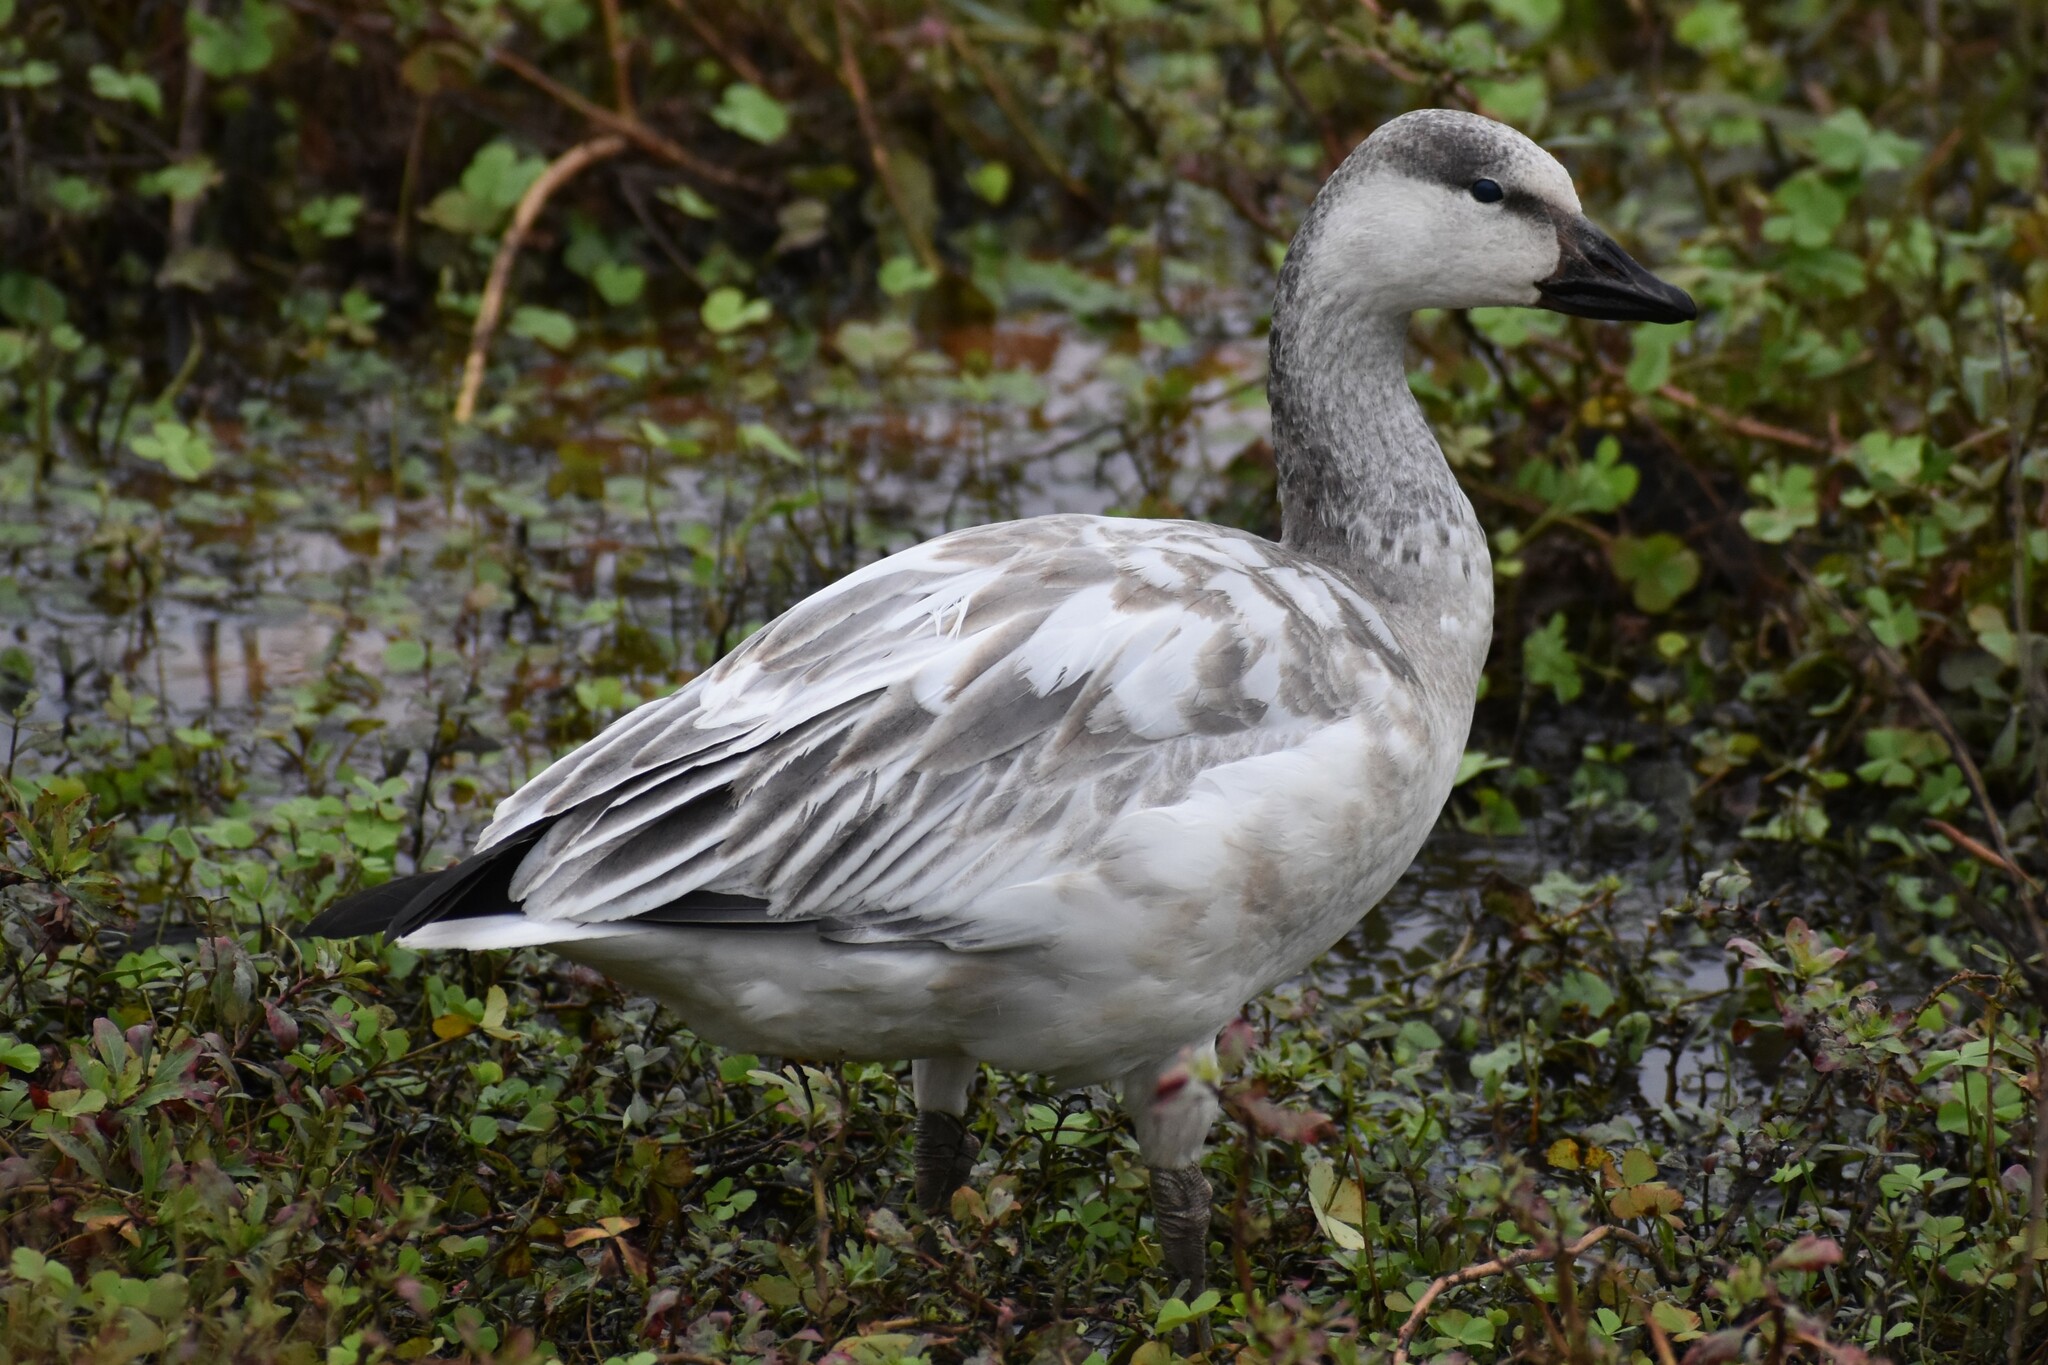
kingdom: Animalia
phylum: Chordata
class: Aves
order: Anseriformes
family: Anatidae
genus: Anser
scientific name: Anser caerulescens
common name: Snow goose
